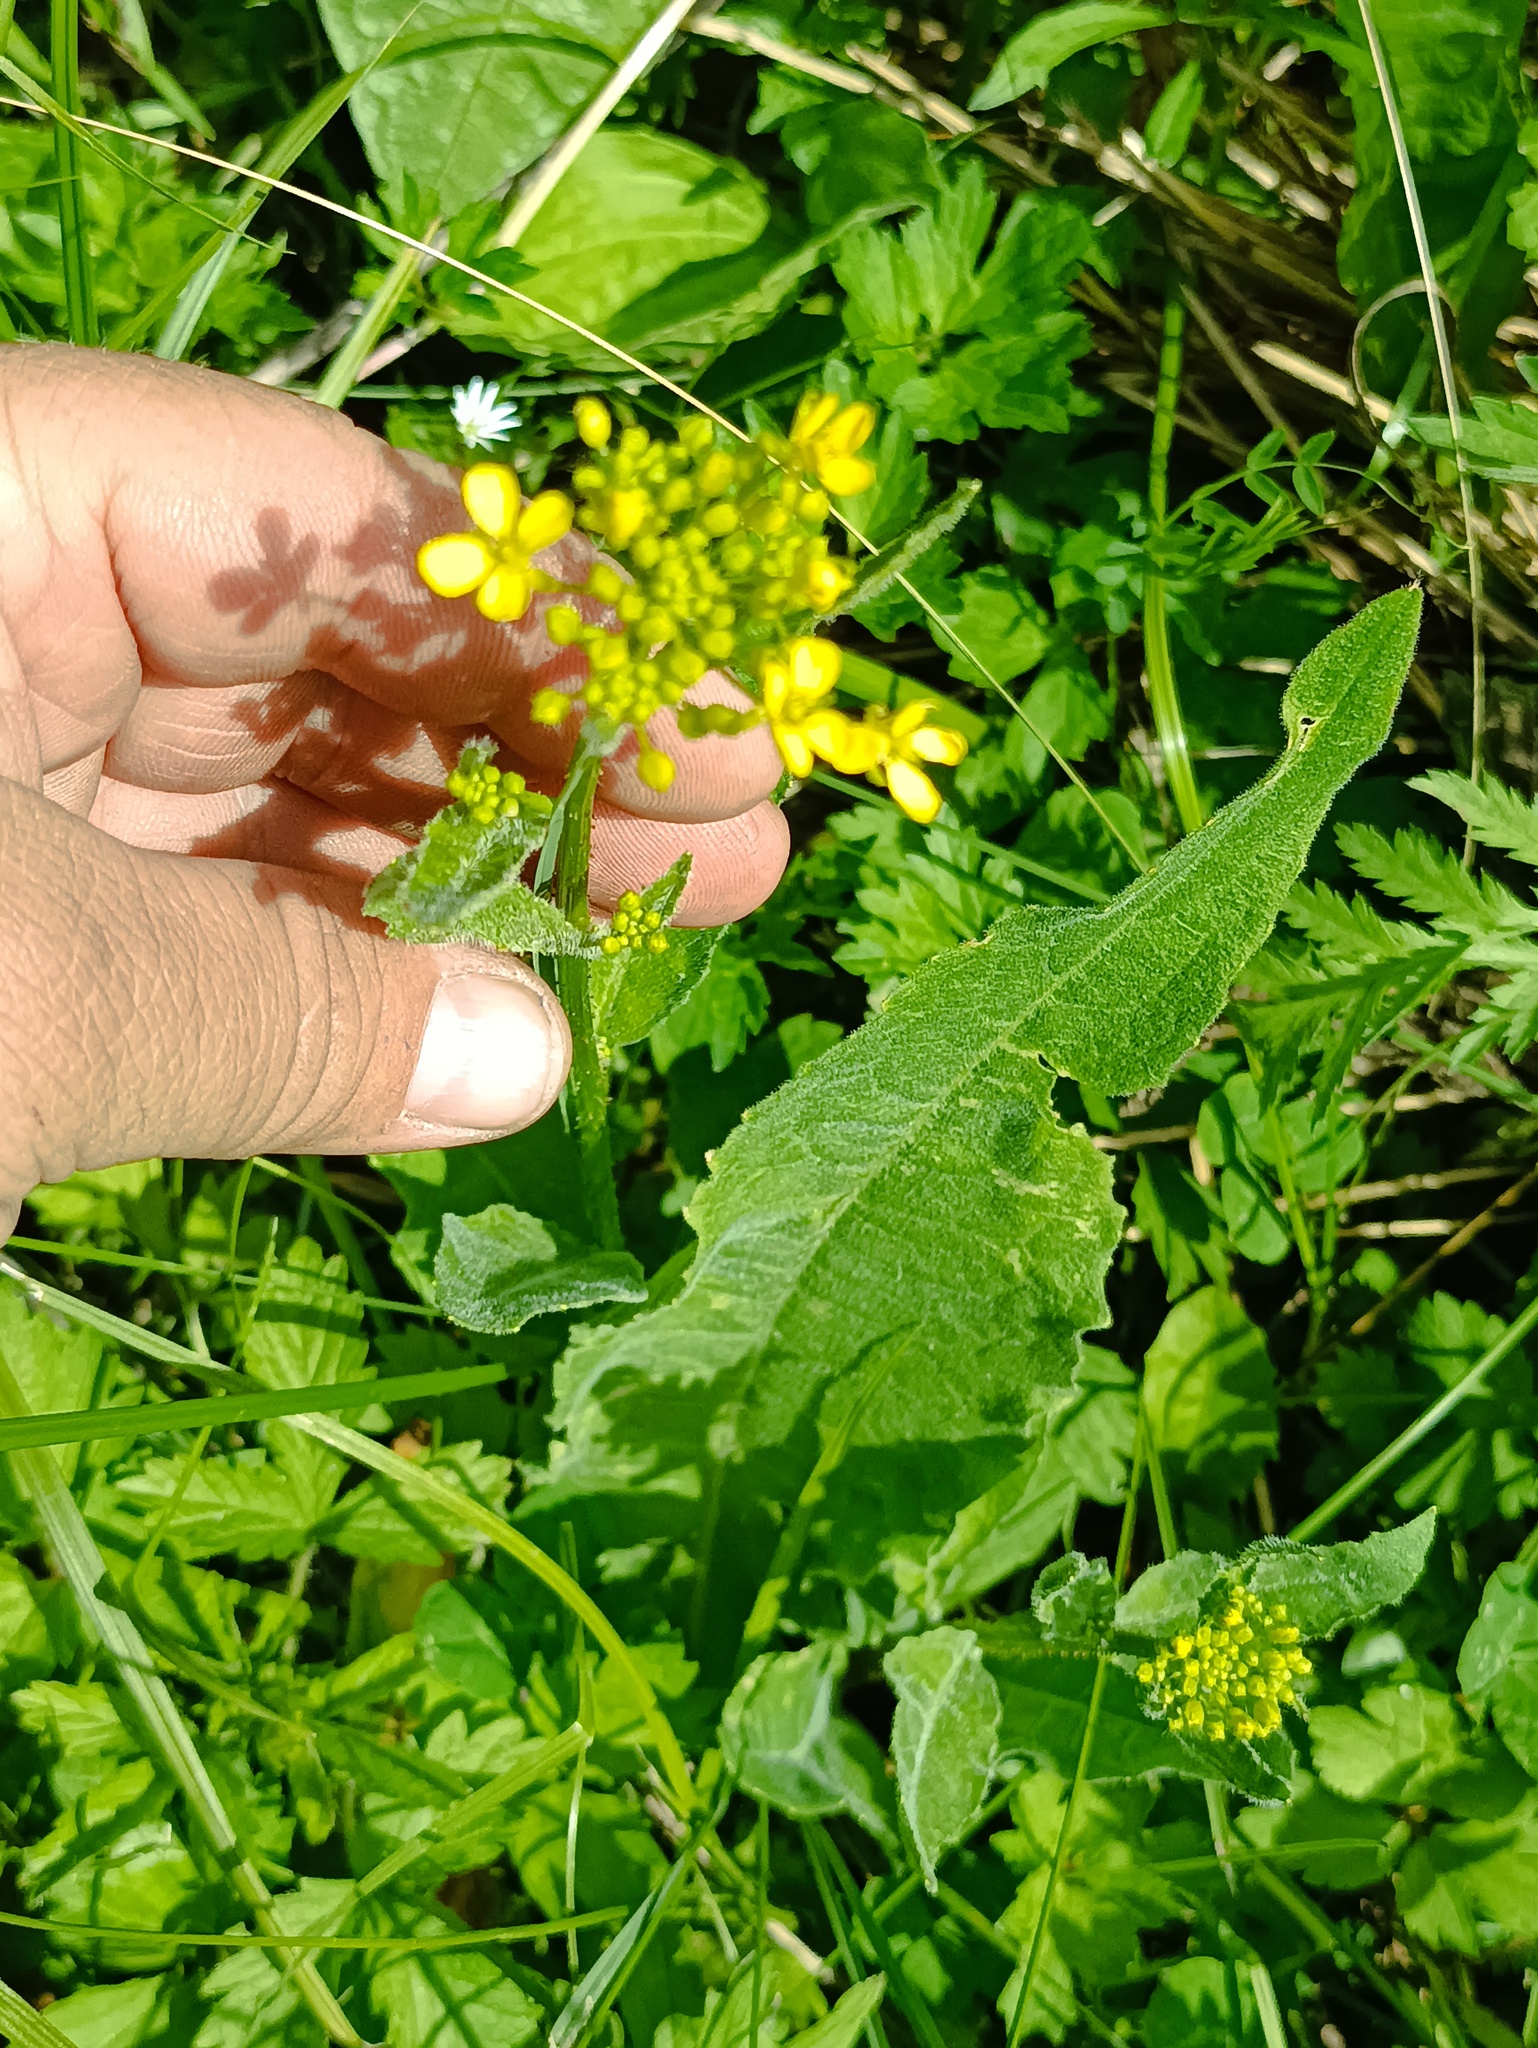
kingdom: Plantae
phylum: Tracheophyta
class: Magnoliopsida
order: Brassicales
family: Brassicaceae
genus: Bunias
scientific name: Bunias orientalis
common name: Warty-cabbage
